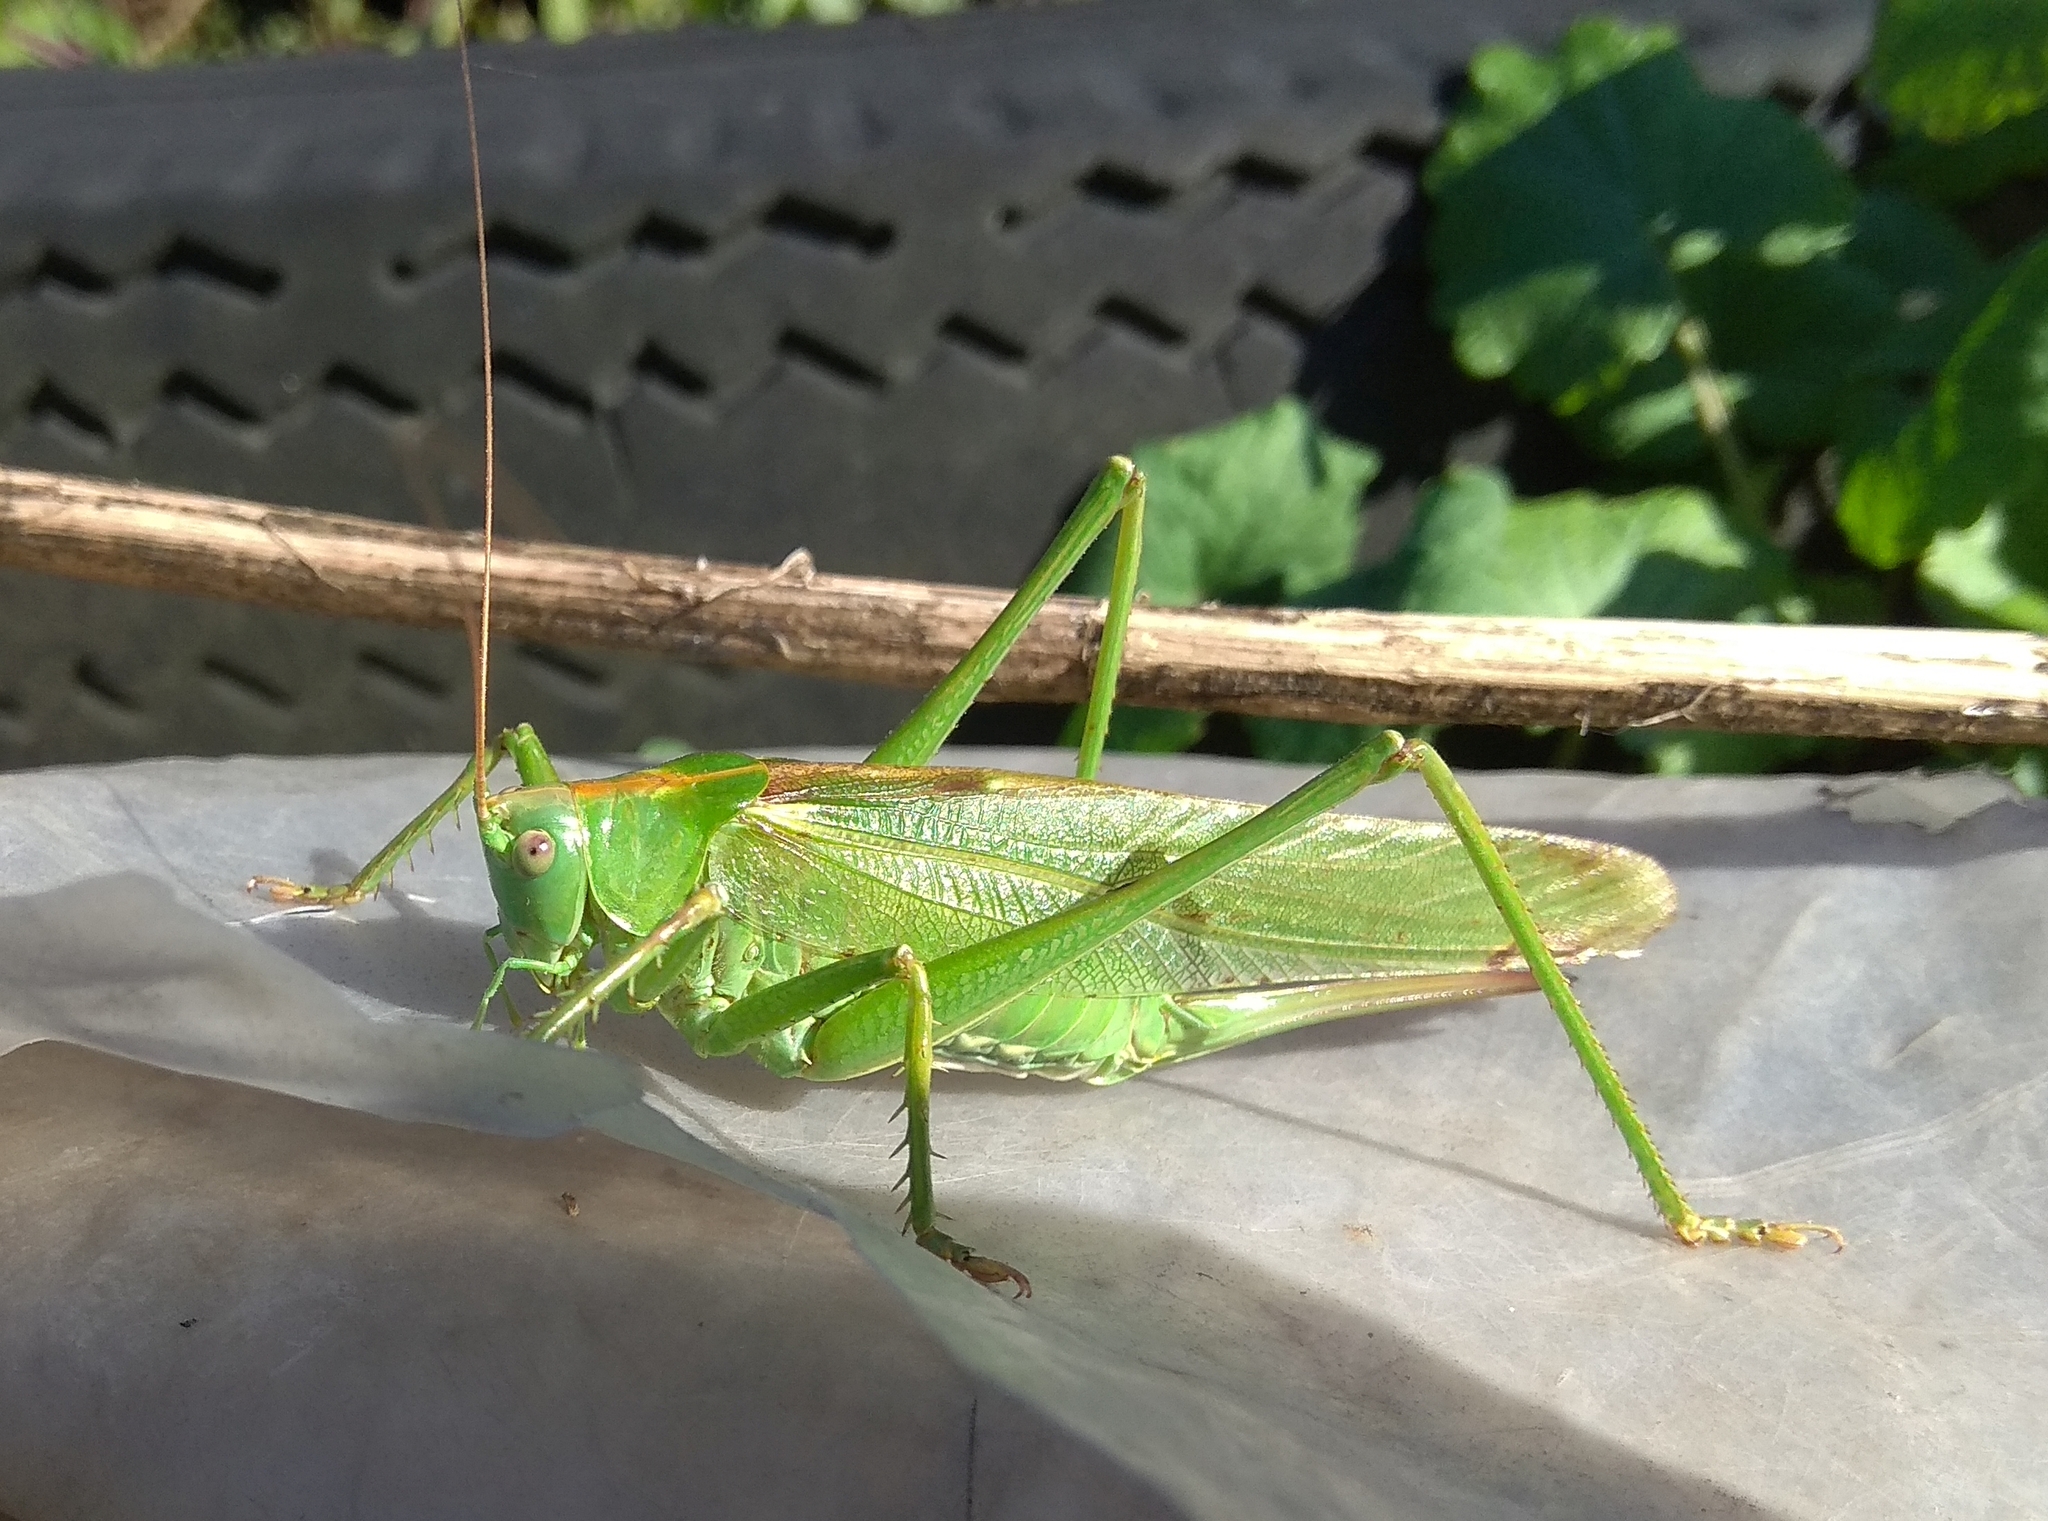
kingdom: Animalia
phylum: Arthropoda
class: Insecta
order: Orthoptera
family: Tettigoniidae
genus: Tettigonia
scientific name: Tettigonia viridissima
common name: Great green bush-cricket
